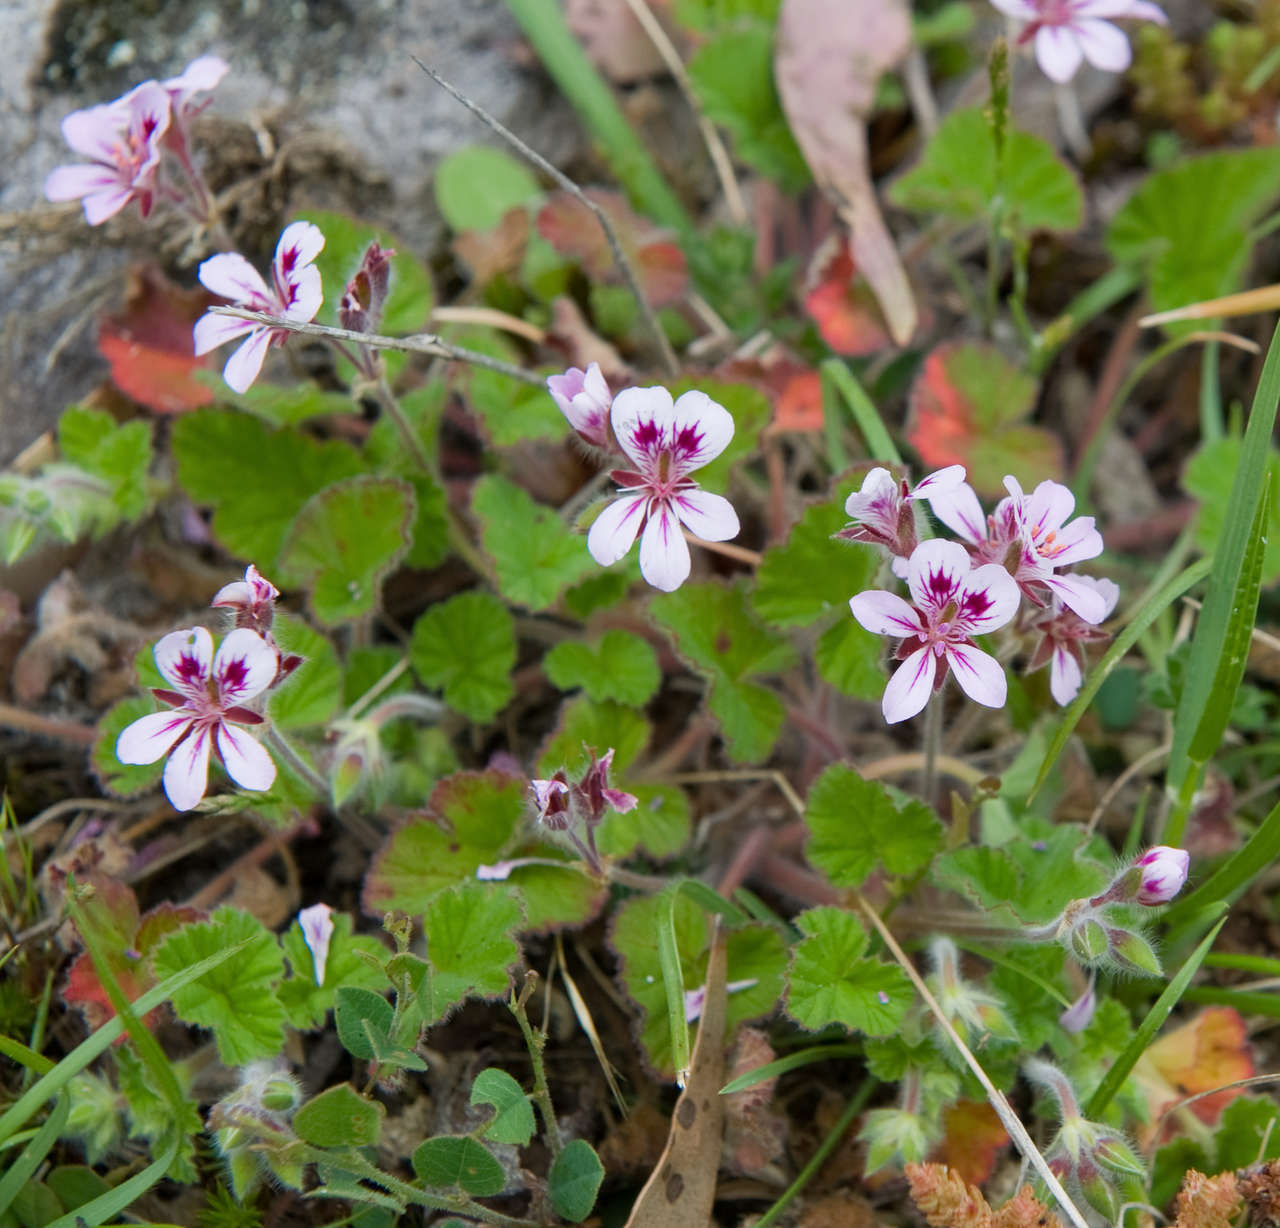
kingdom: Plantae
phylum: Tracheophyta
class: Magnoliopsida
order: Geraniales
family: Geraniaceae
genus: Pelargonium
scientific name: Pelargonium australe
